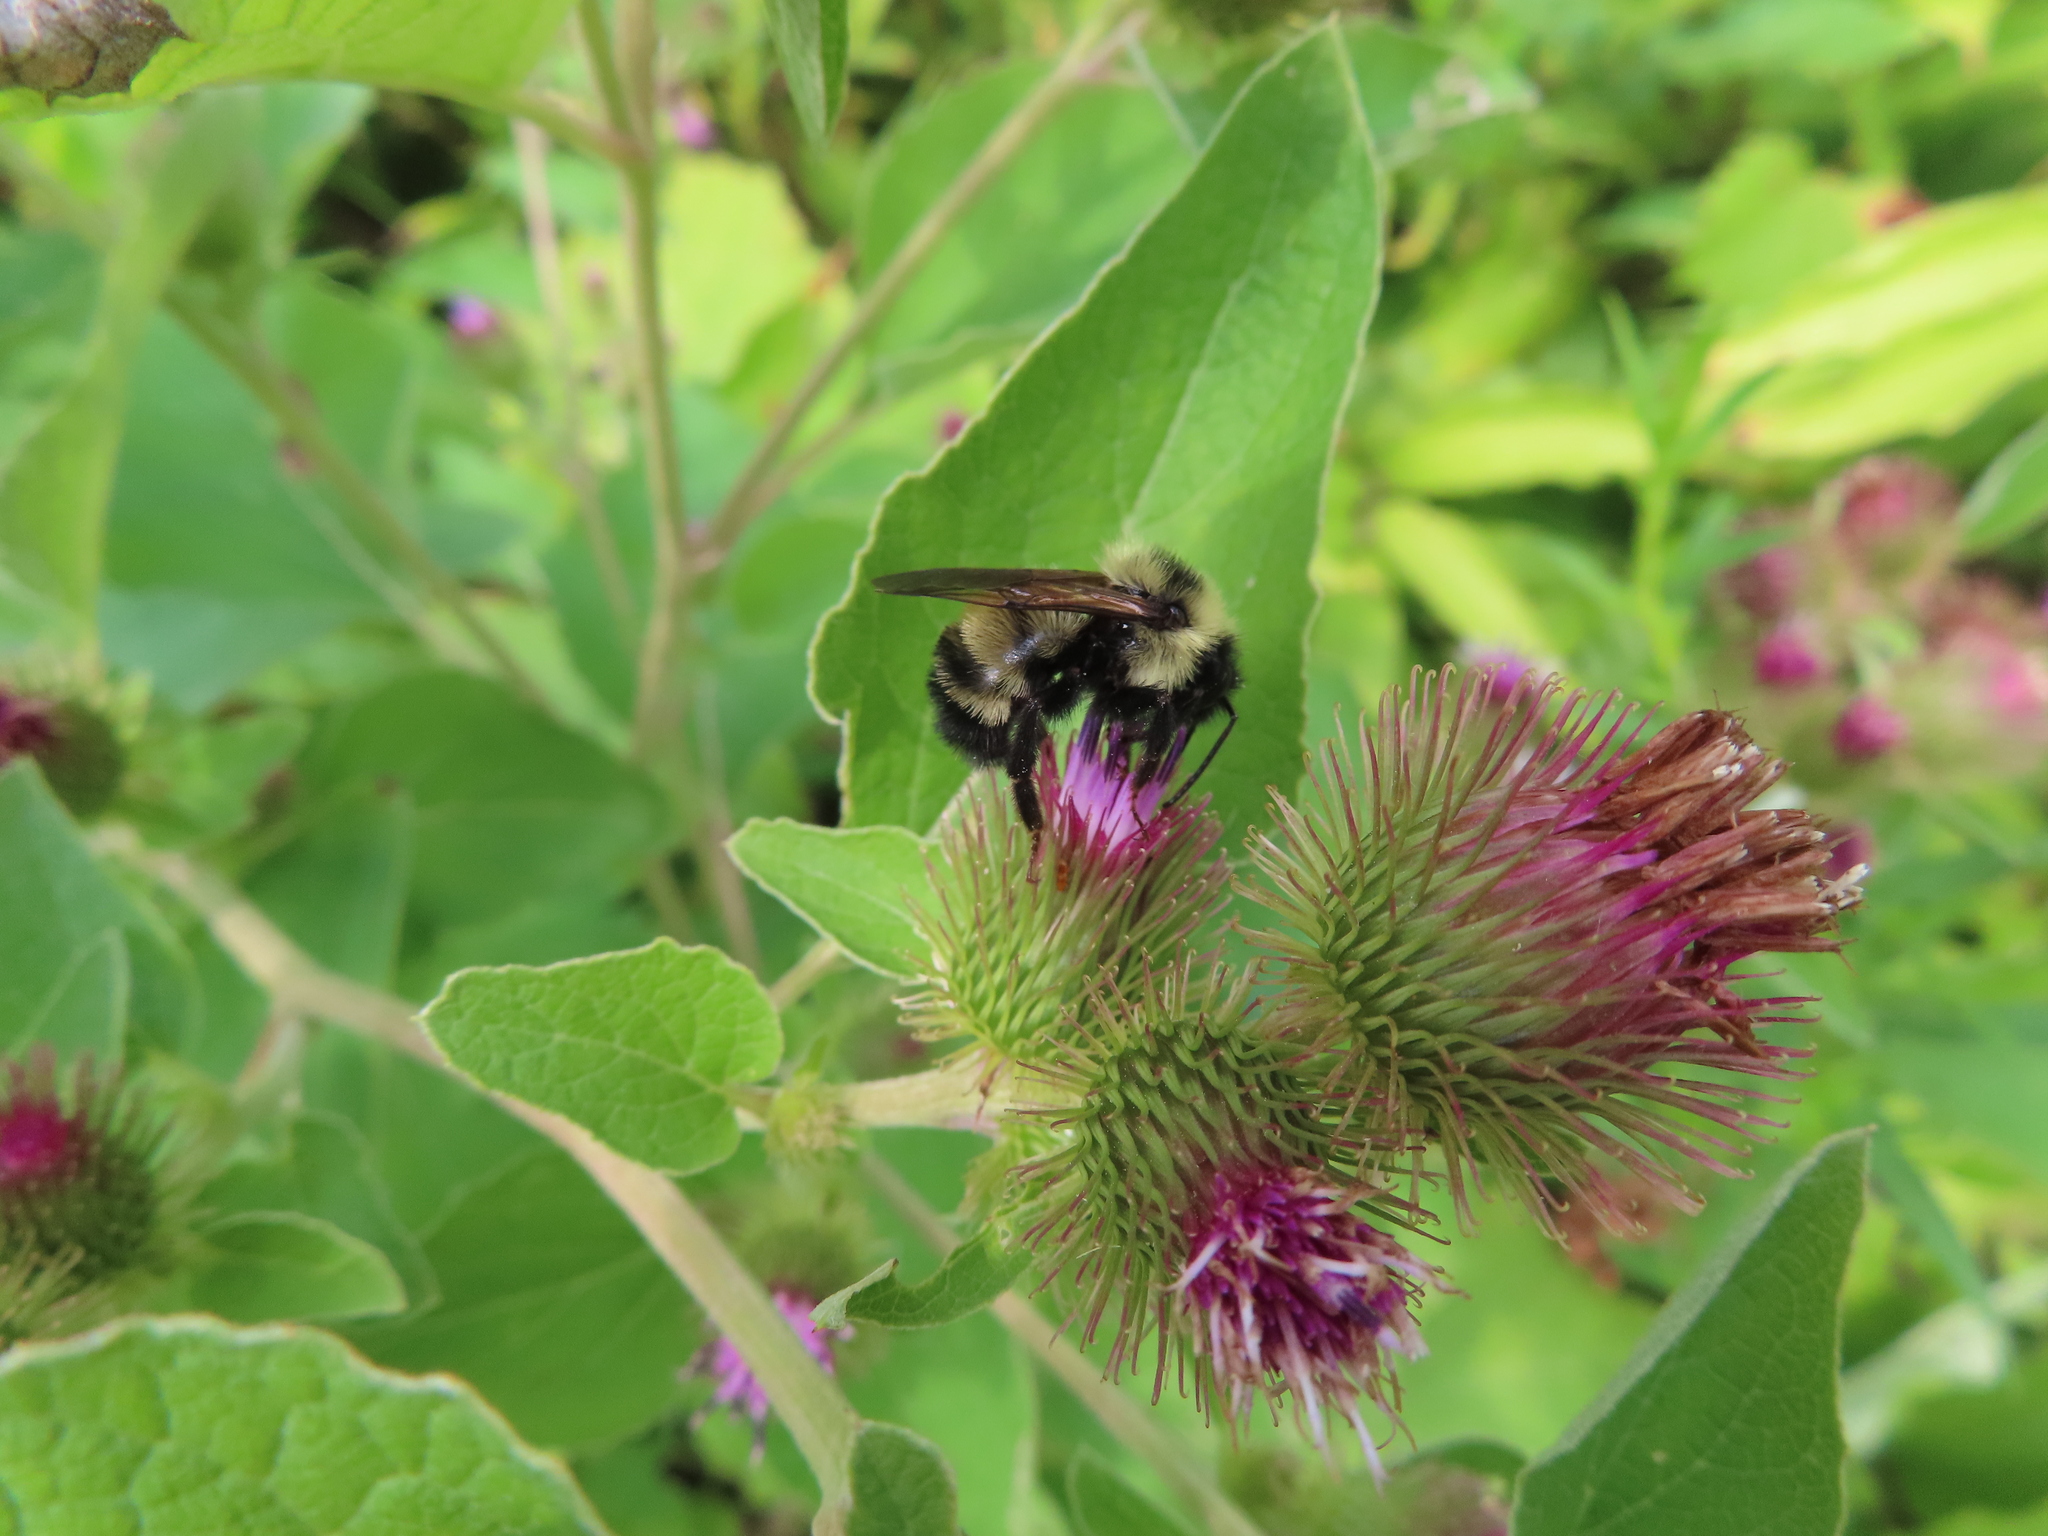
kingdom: Animalia
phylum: Arthropoda
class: Insecta
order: Hymenoptera
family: Apidae
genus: Bombus
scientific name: Bombus citrinus
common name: Lemon cuckoo bumble bee
